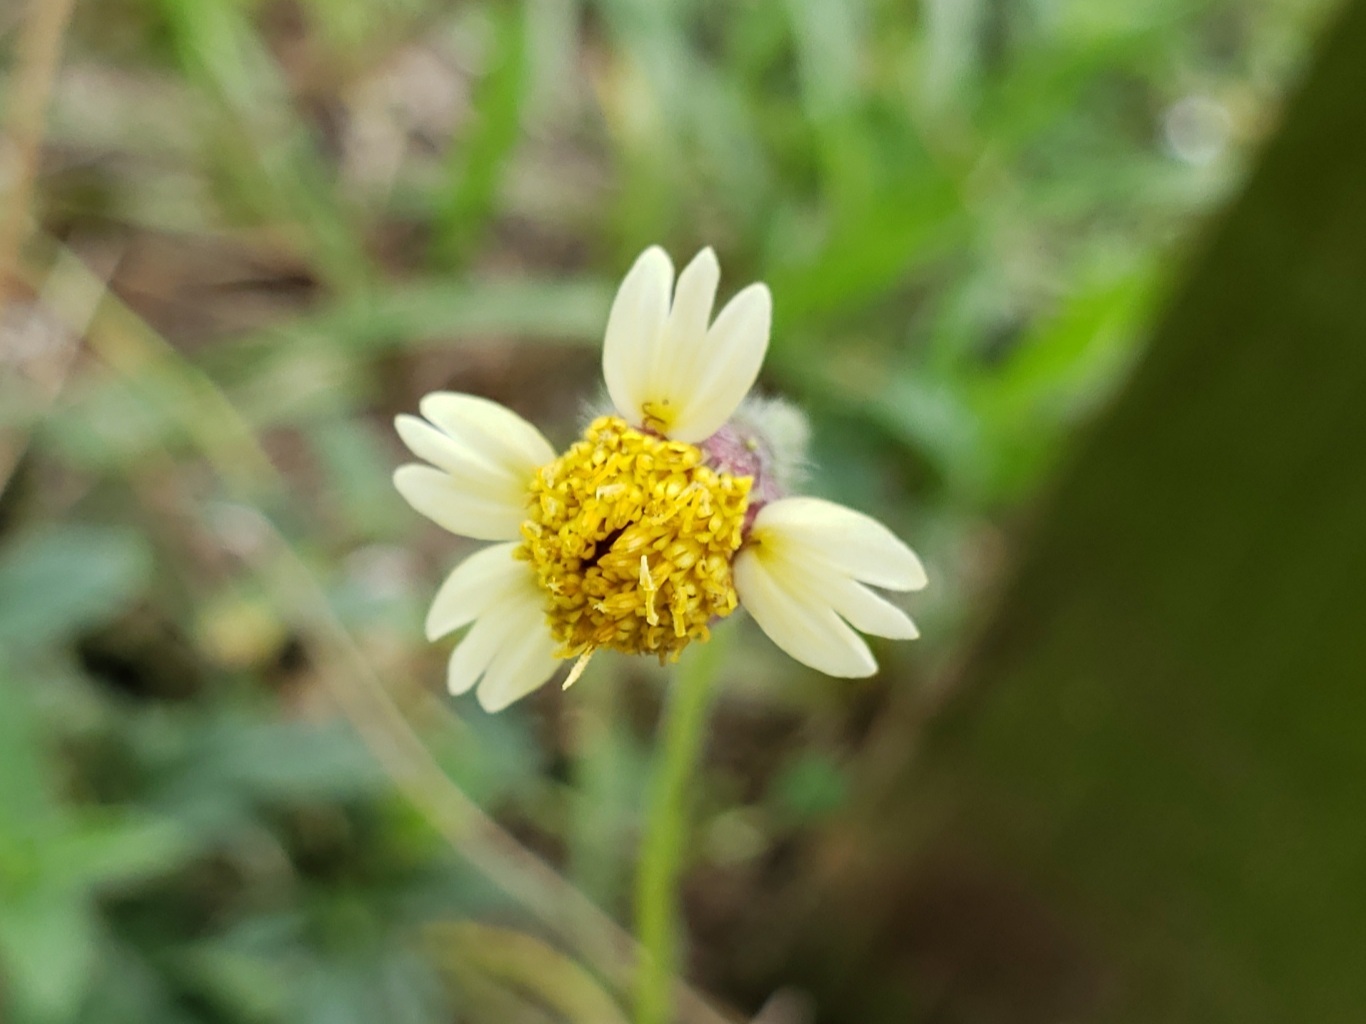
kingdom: Plantae
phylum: Tracheophyta
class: Magnoliopsida
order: Asterales
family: Asteraceae
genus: Tridax
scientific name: Tridax procumbens
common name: Coatbuttons
